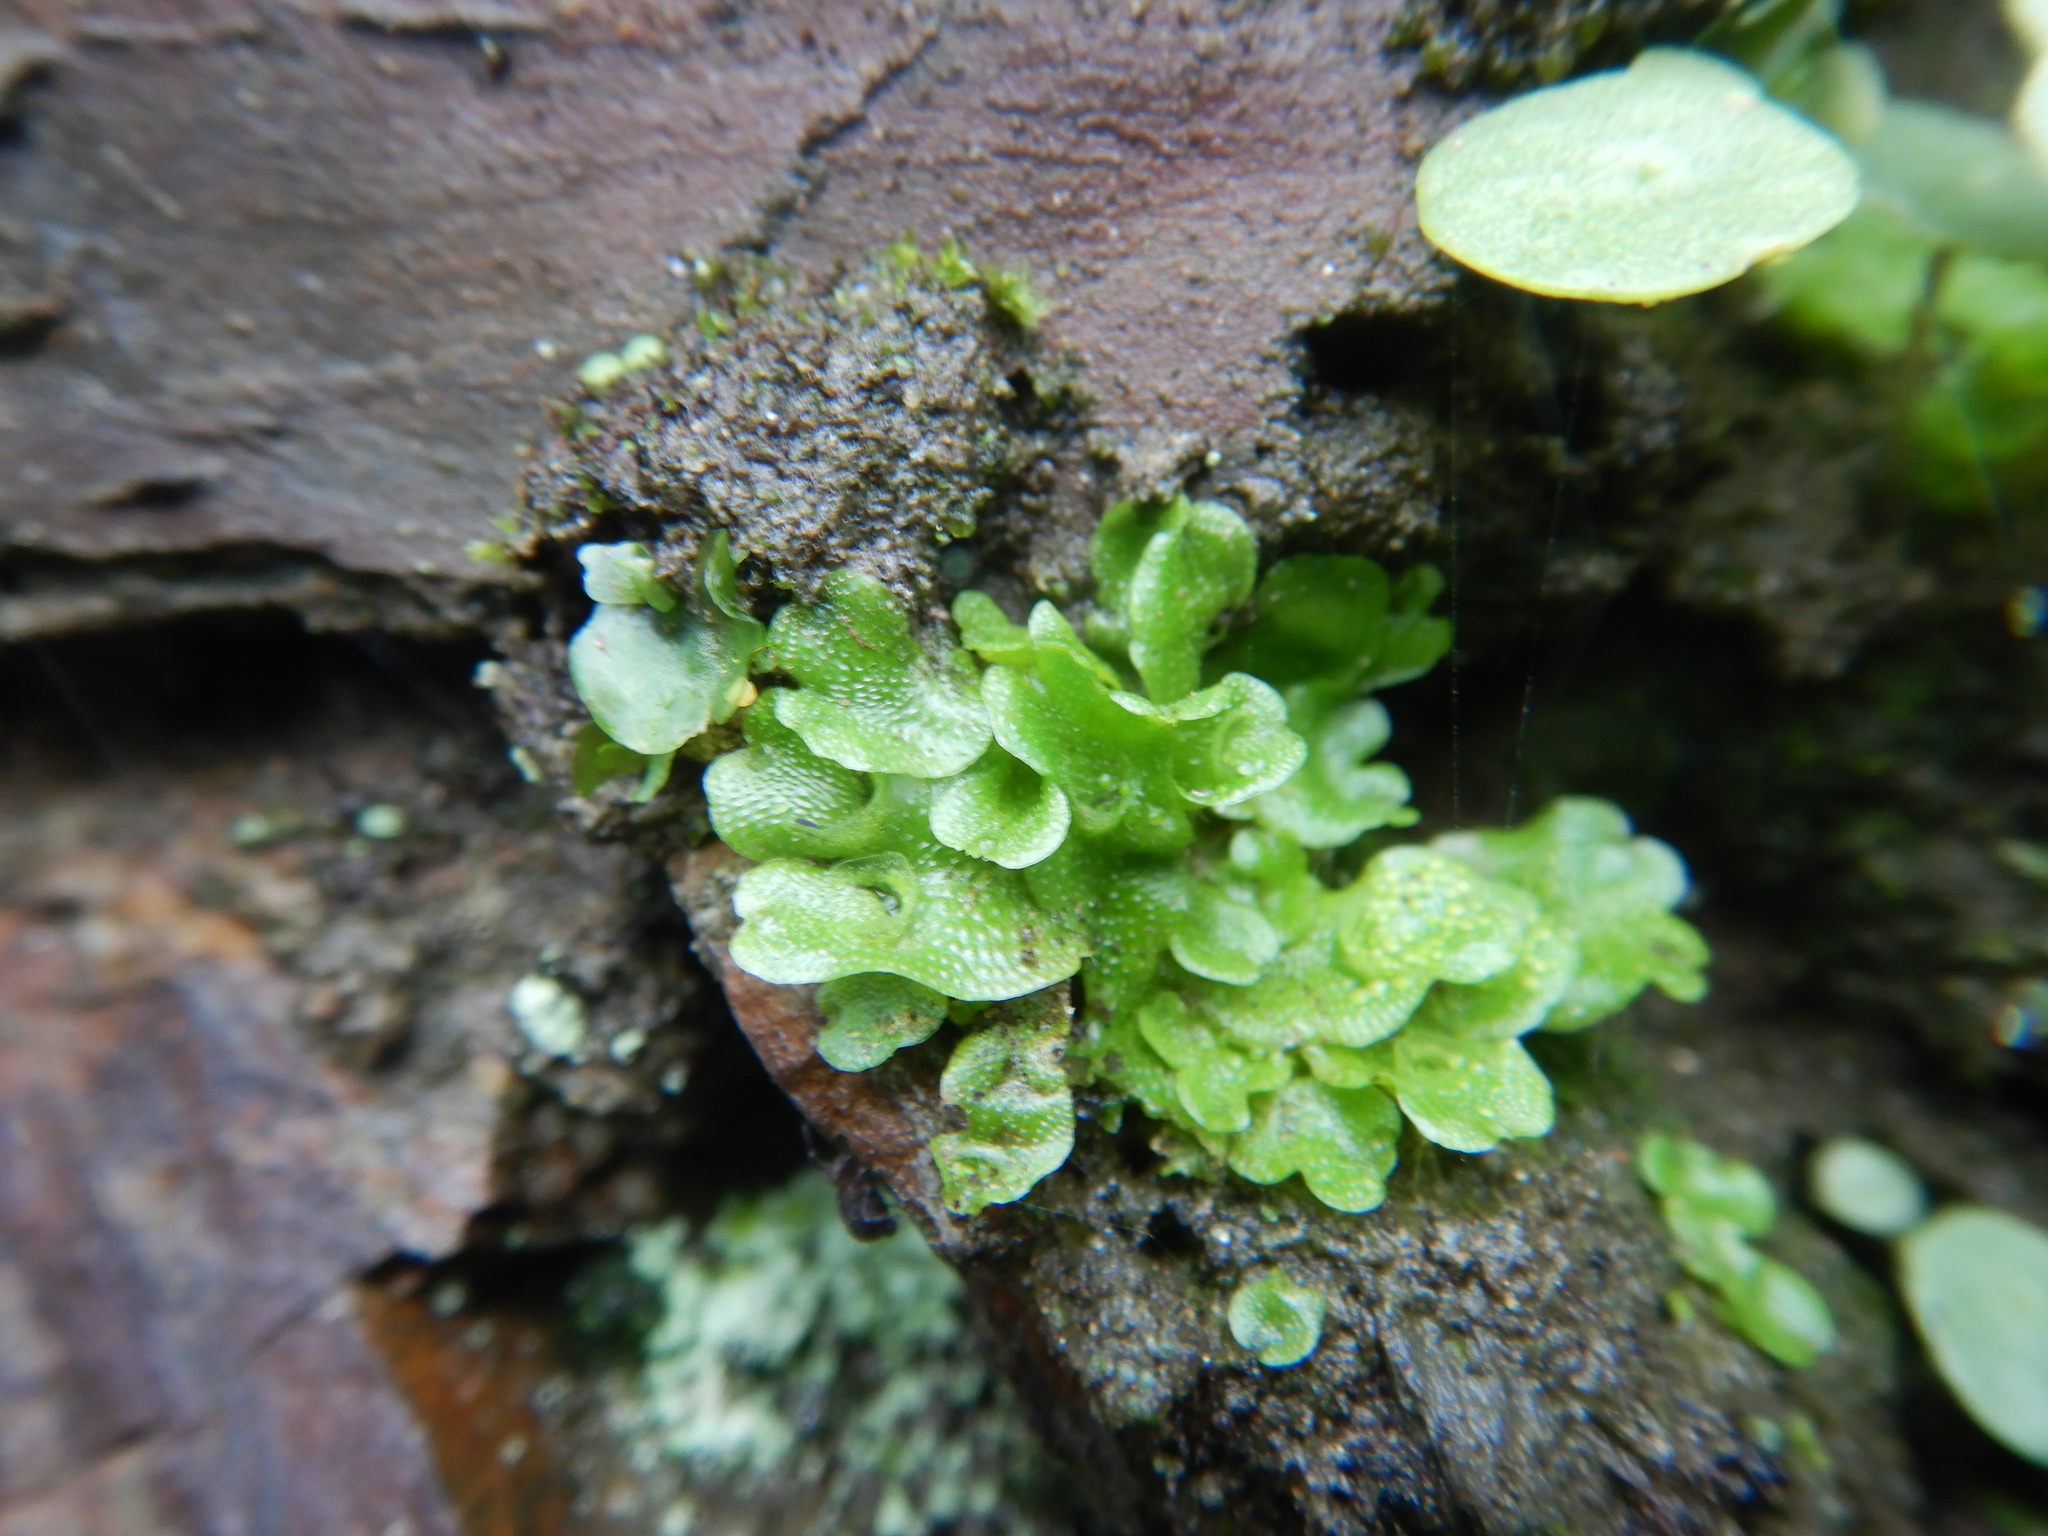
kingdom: Plantae
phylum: Marchantiophyta
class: Marchantiopsida
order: Lunulariales
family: Lunulariaceae
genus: Lunularia
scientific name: Lunularia cruciata
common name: Crescent-cup liverwort
